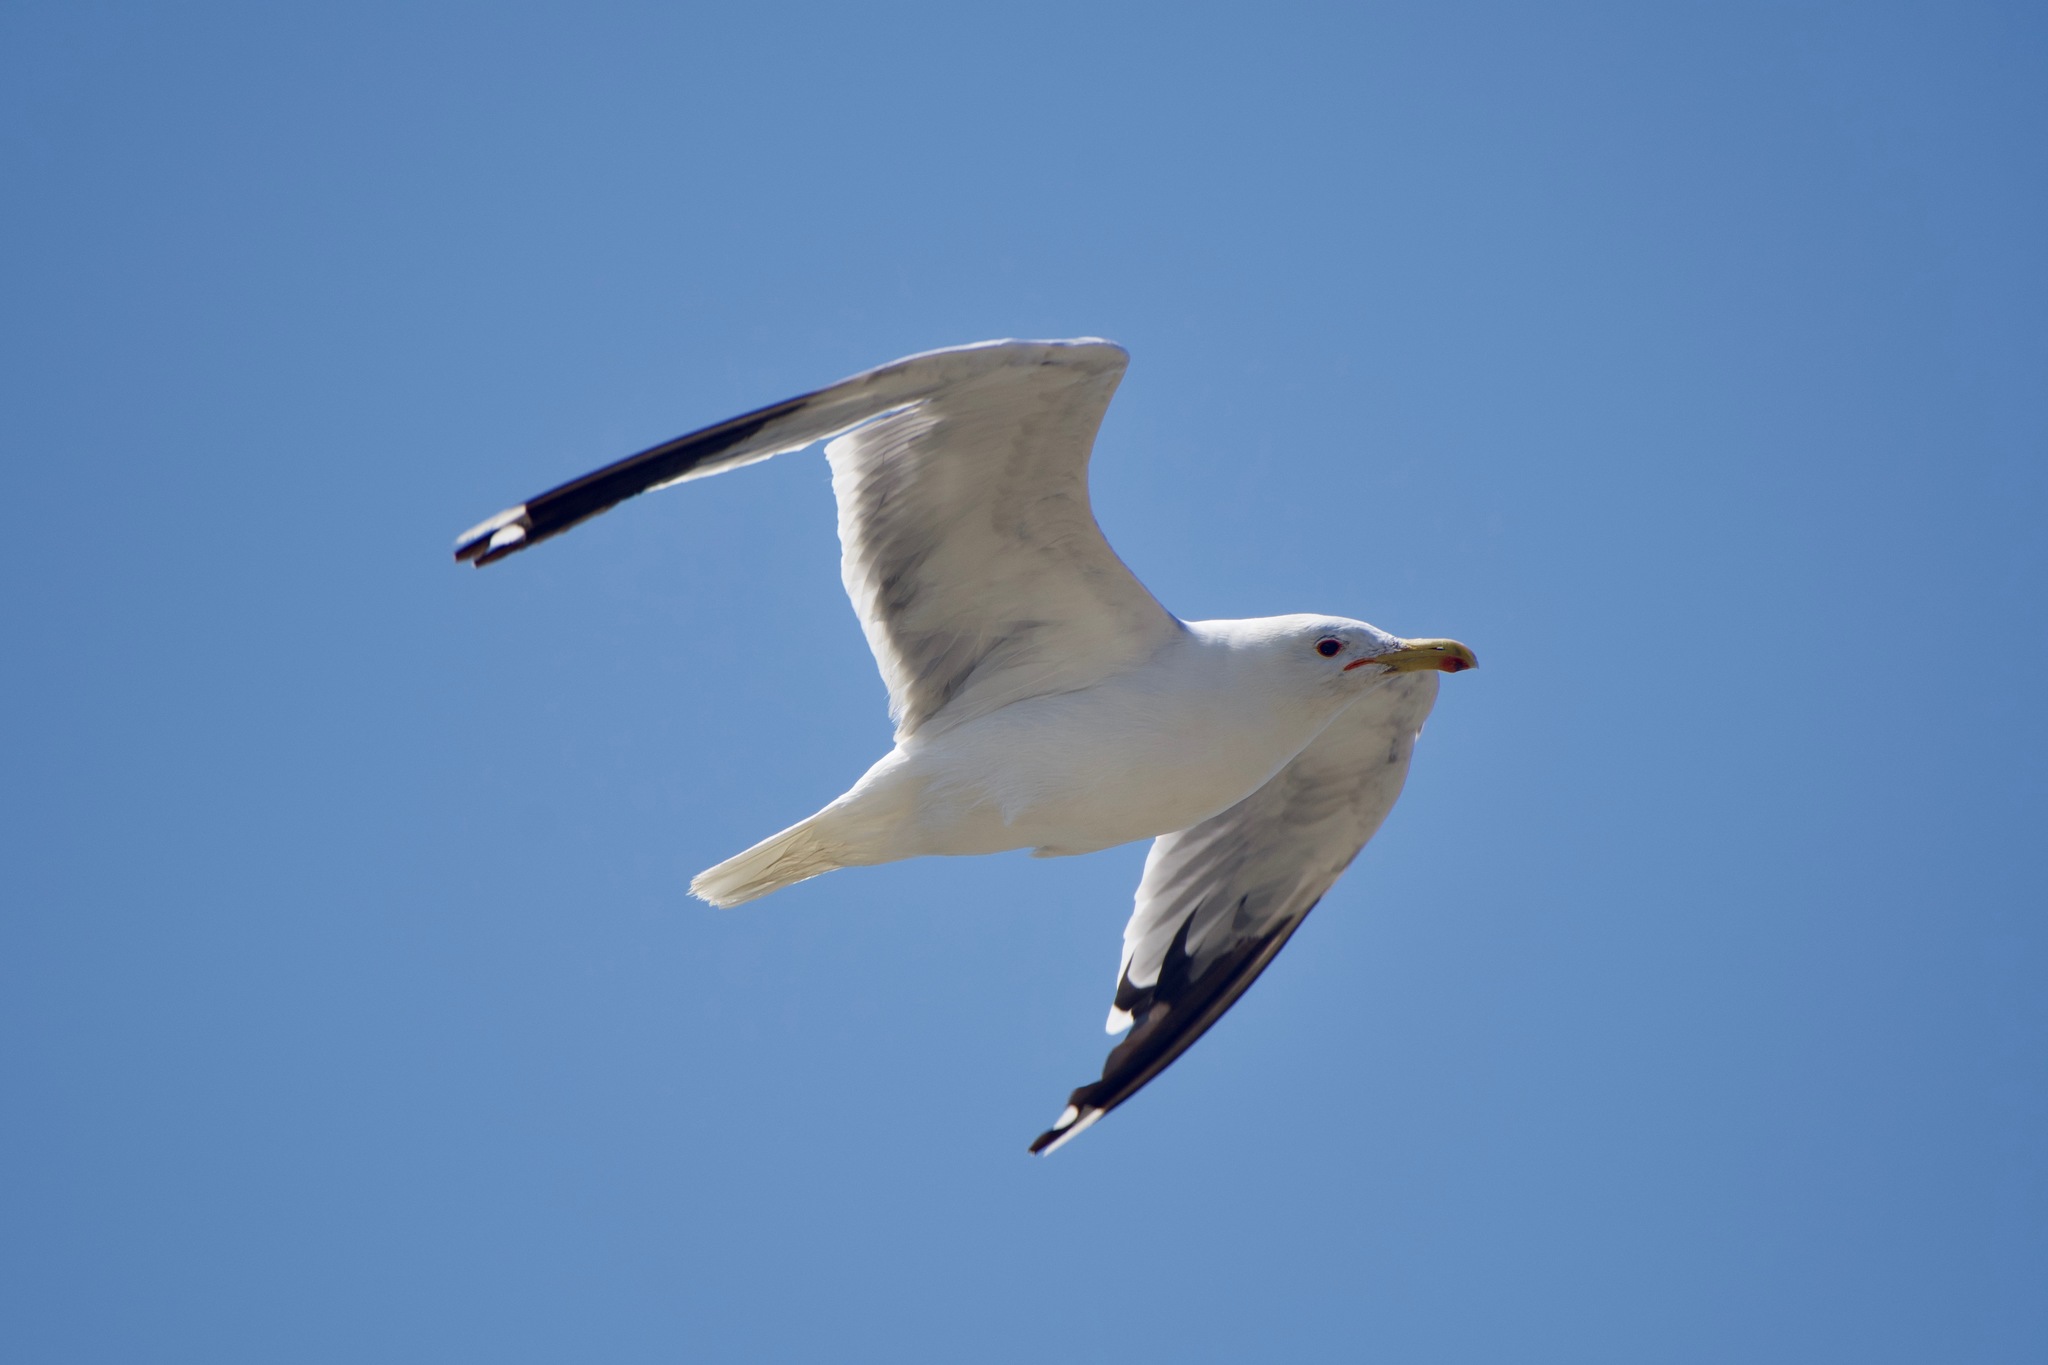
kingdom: Animalia
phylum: Chordata
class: Aves
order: Charadriiformes
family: Laridae
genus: Larus
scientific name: Larus californicus
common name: California gull
